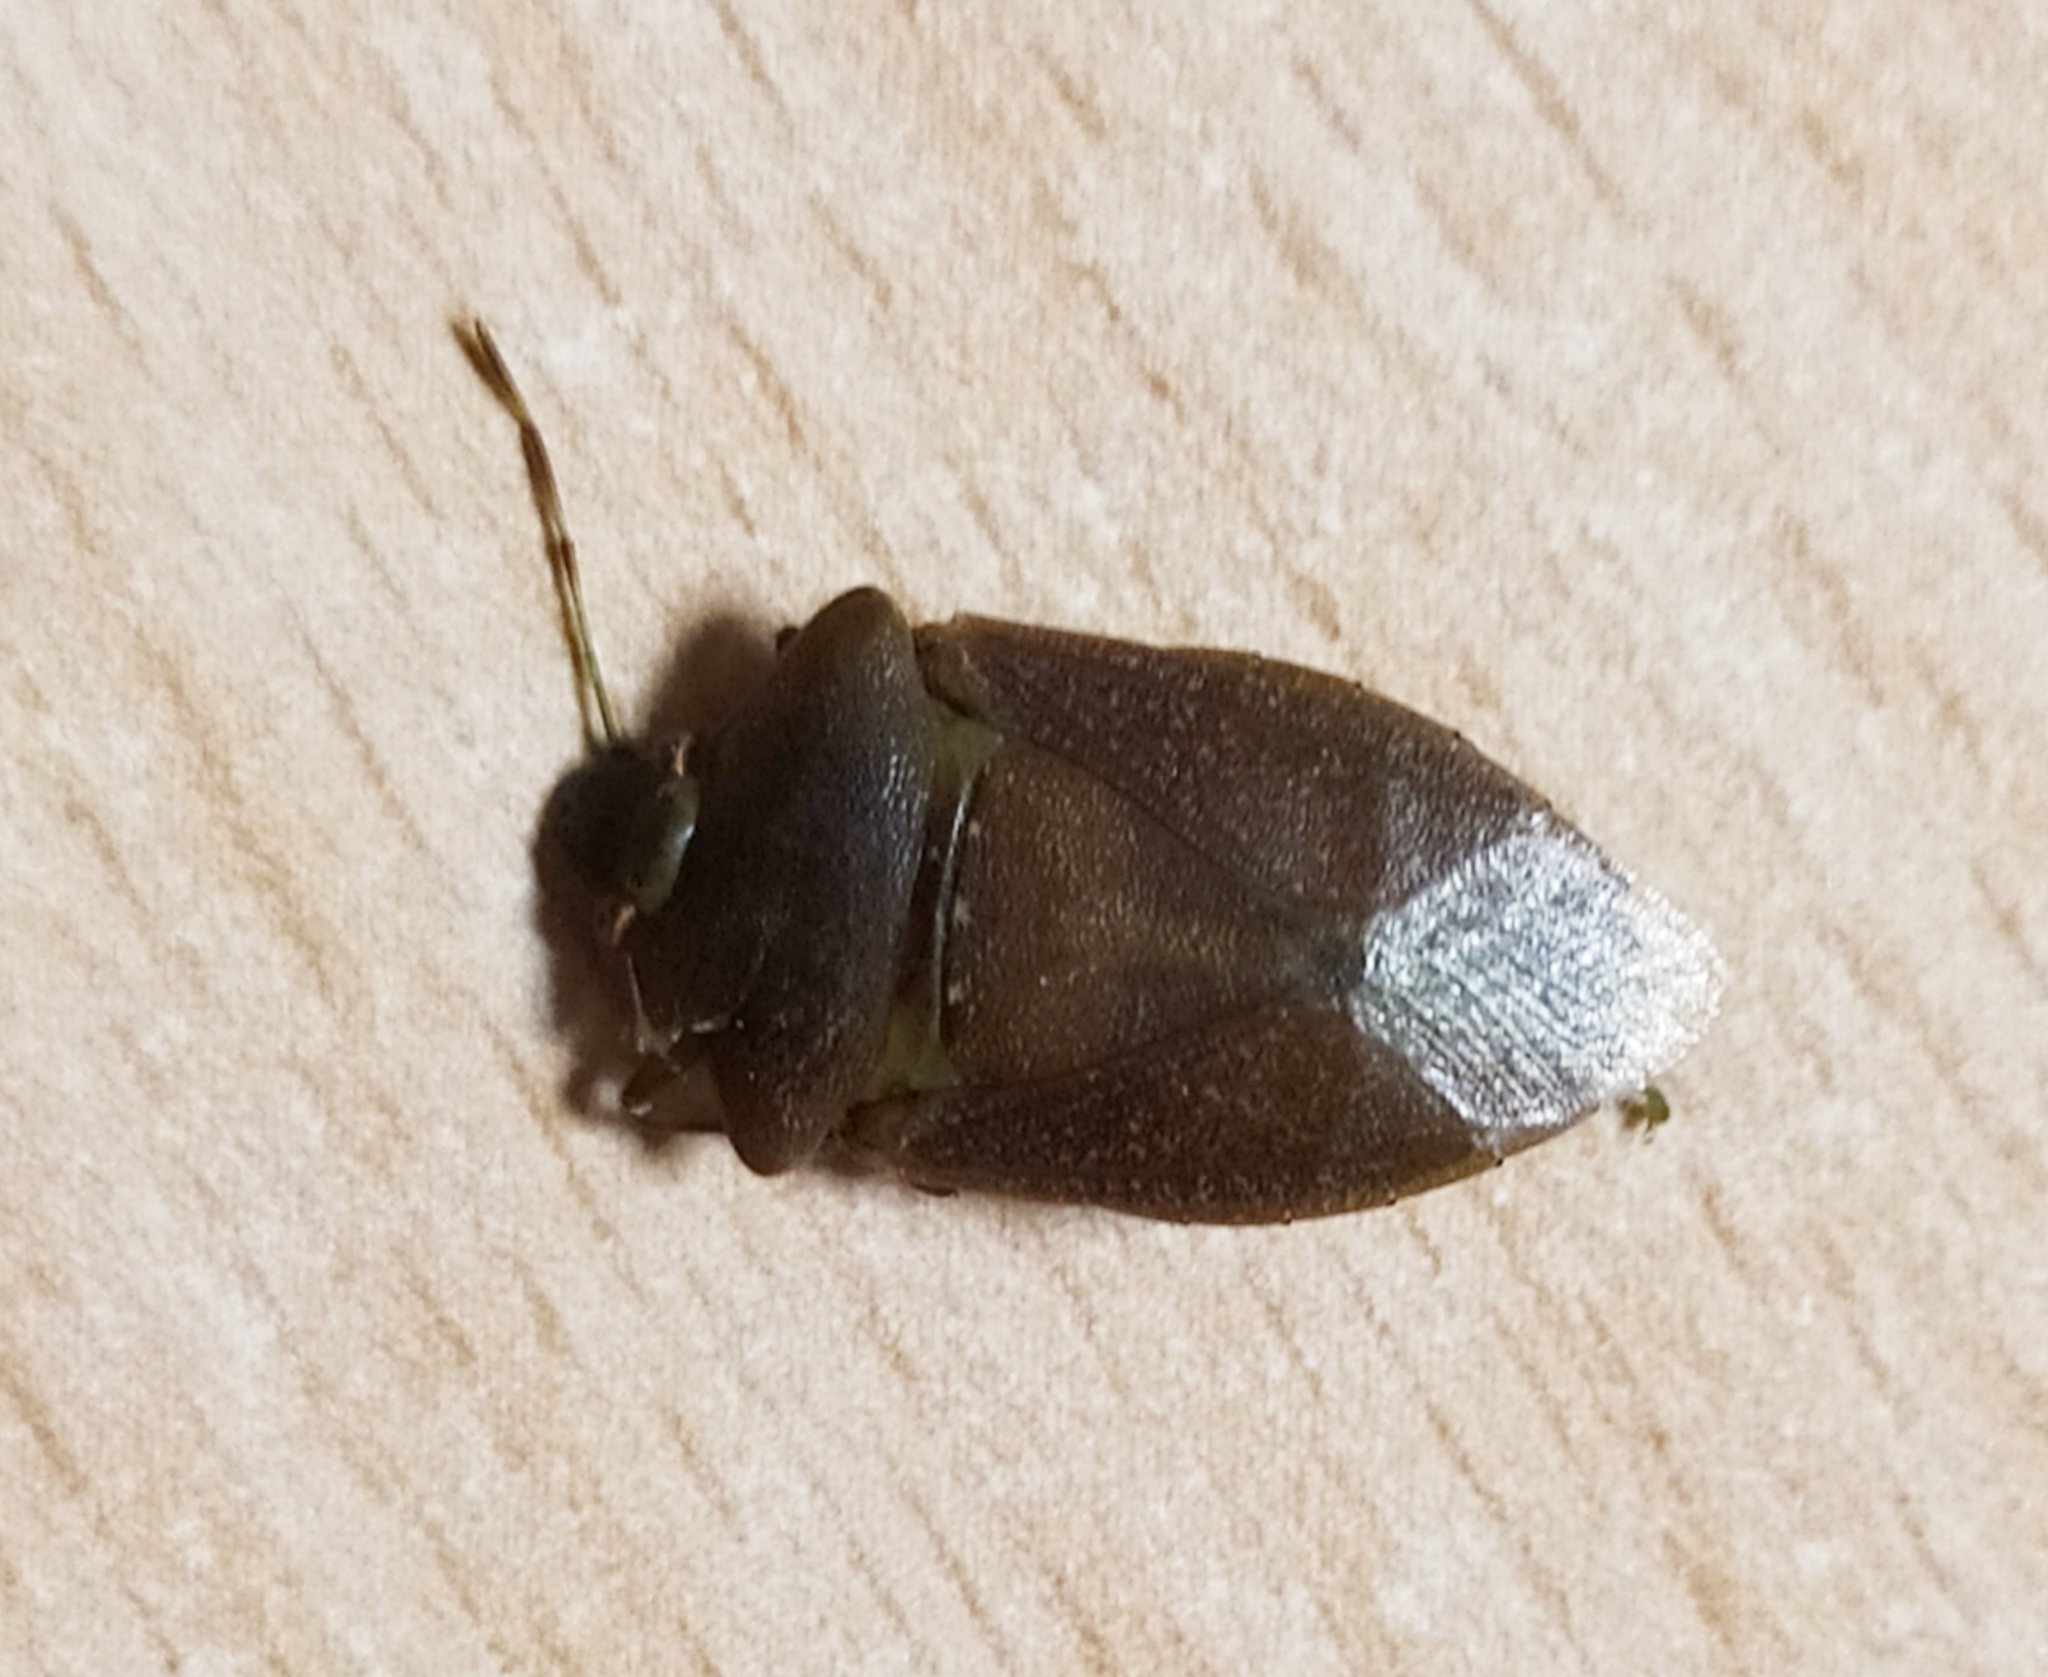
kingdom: Animalia
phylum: Arthropoda
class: Insecta
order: Hemiptera
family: Pentatomidae
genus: Nezara
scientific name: Nezara viridula
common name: Southern green stink bug
